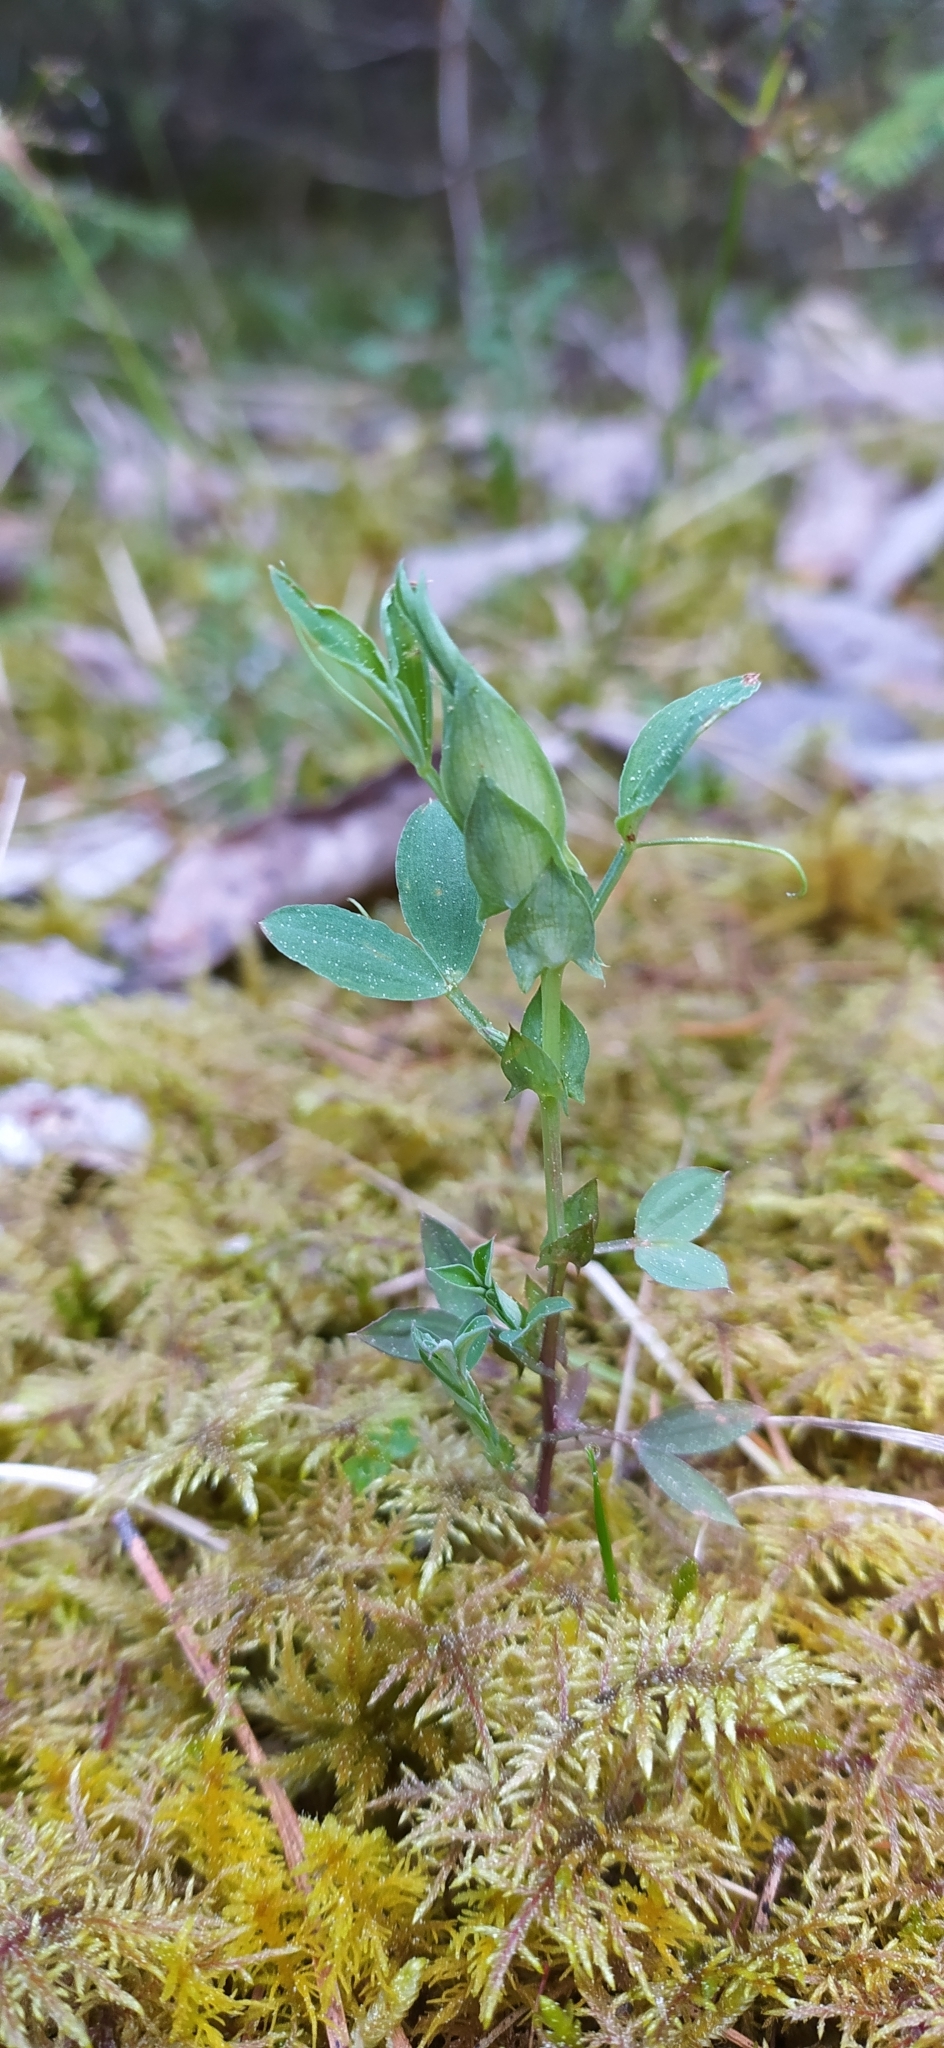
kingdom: Plantae
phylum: Tracheophyta
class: Magnoliopsida
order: Fabales
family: Fabaceae
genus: Lathyrus
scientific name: Lathyrus pratensis
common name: Meadow vetchling
